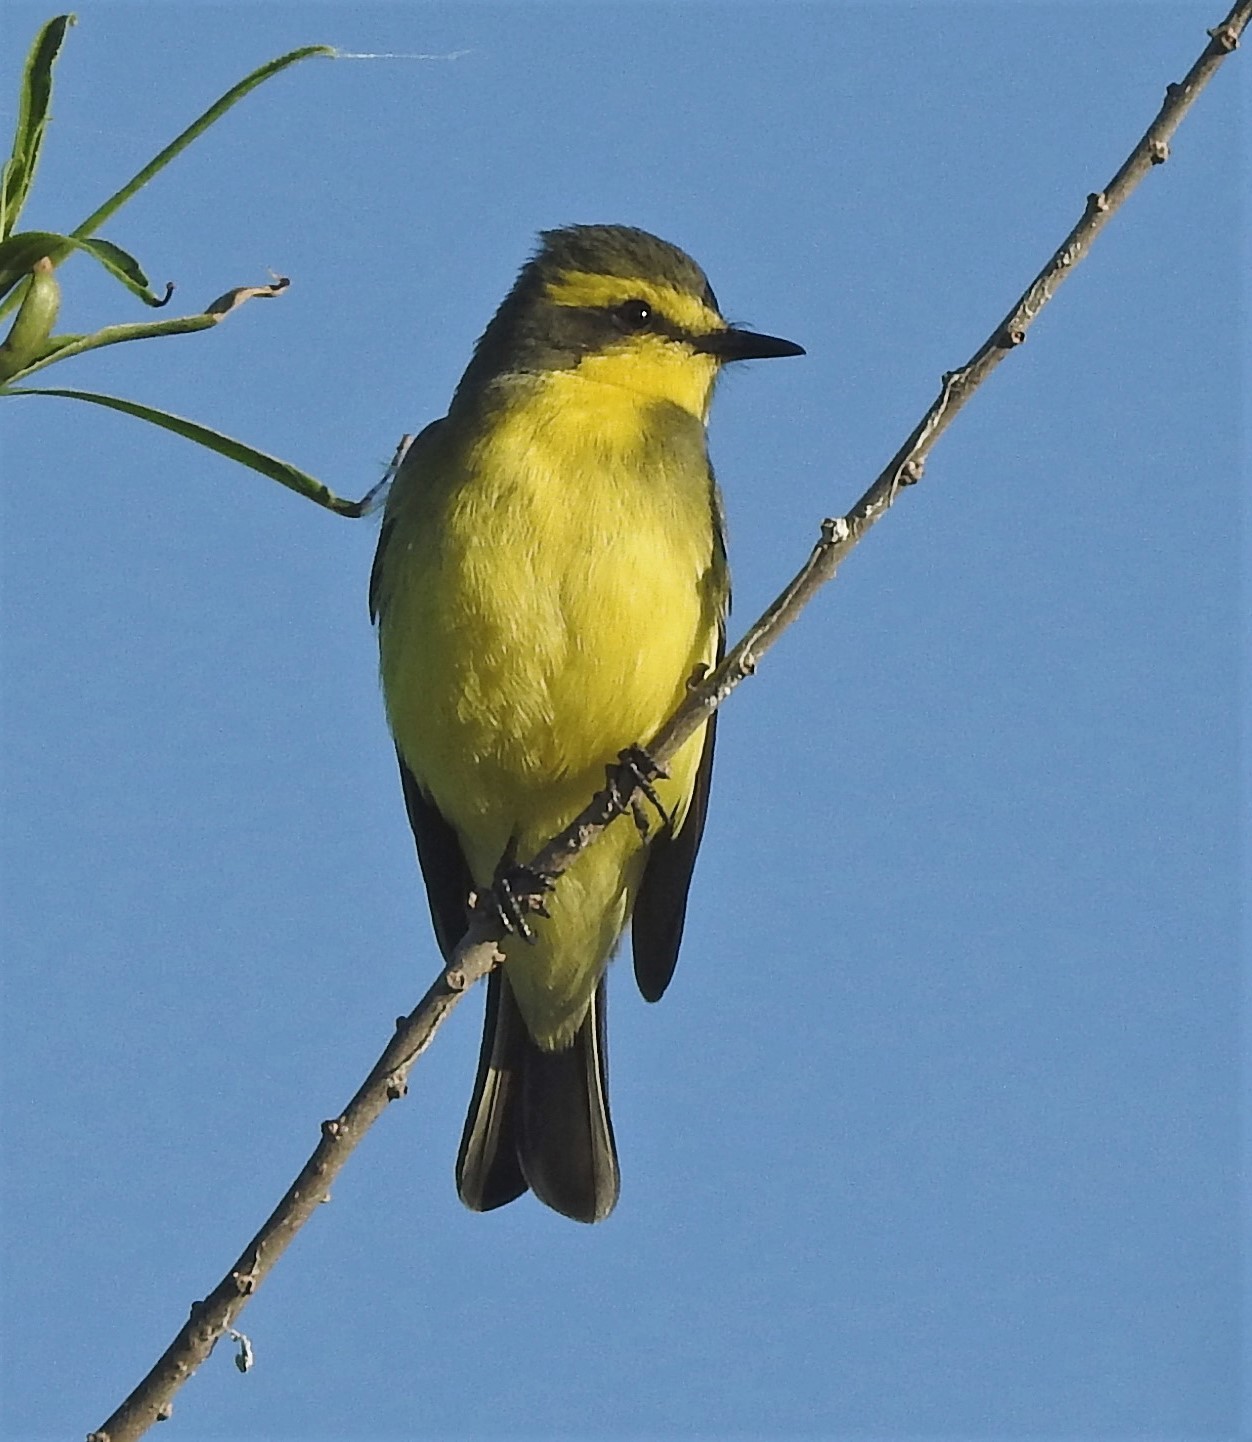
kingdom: Animalia
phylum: Chordata
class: Aves
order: Passeriformes
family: Tyrannidae
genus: Satrapa
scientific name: Satrapa icterophrys
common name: Yellow-browed tyrant
